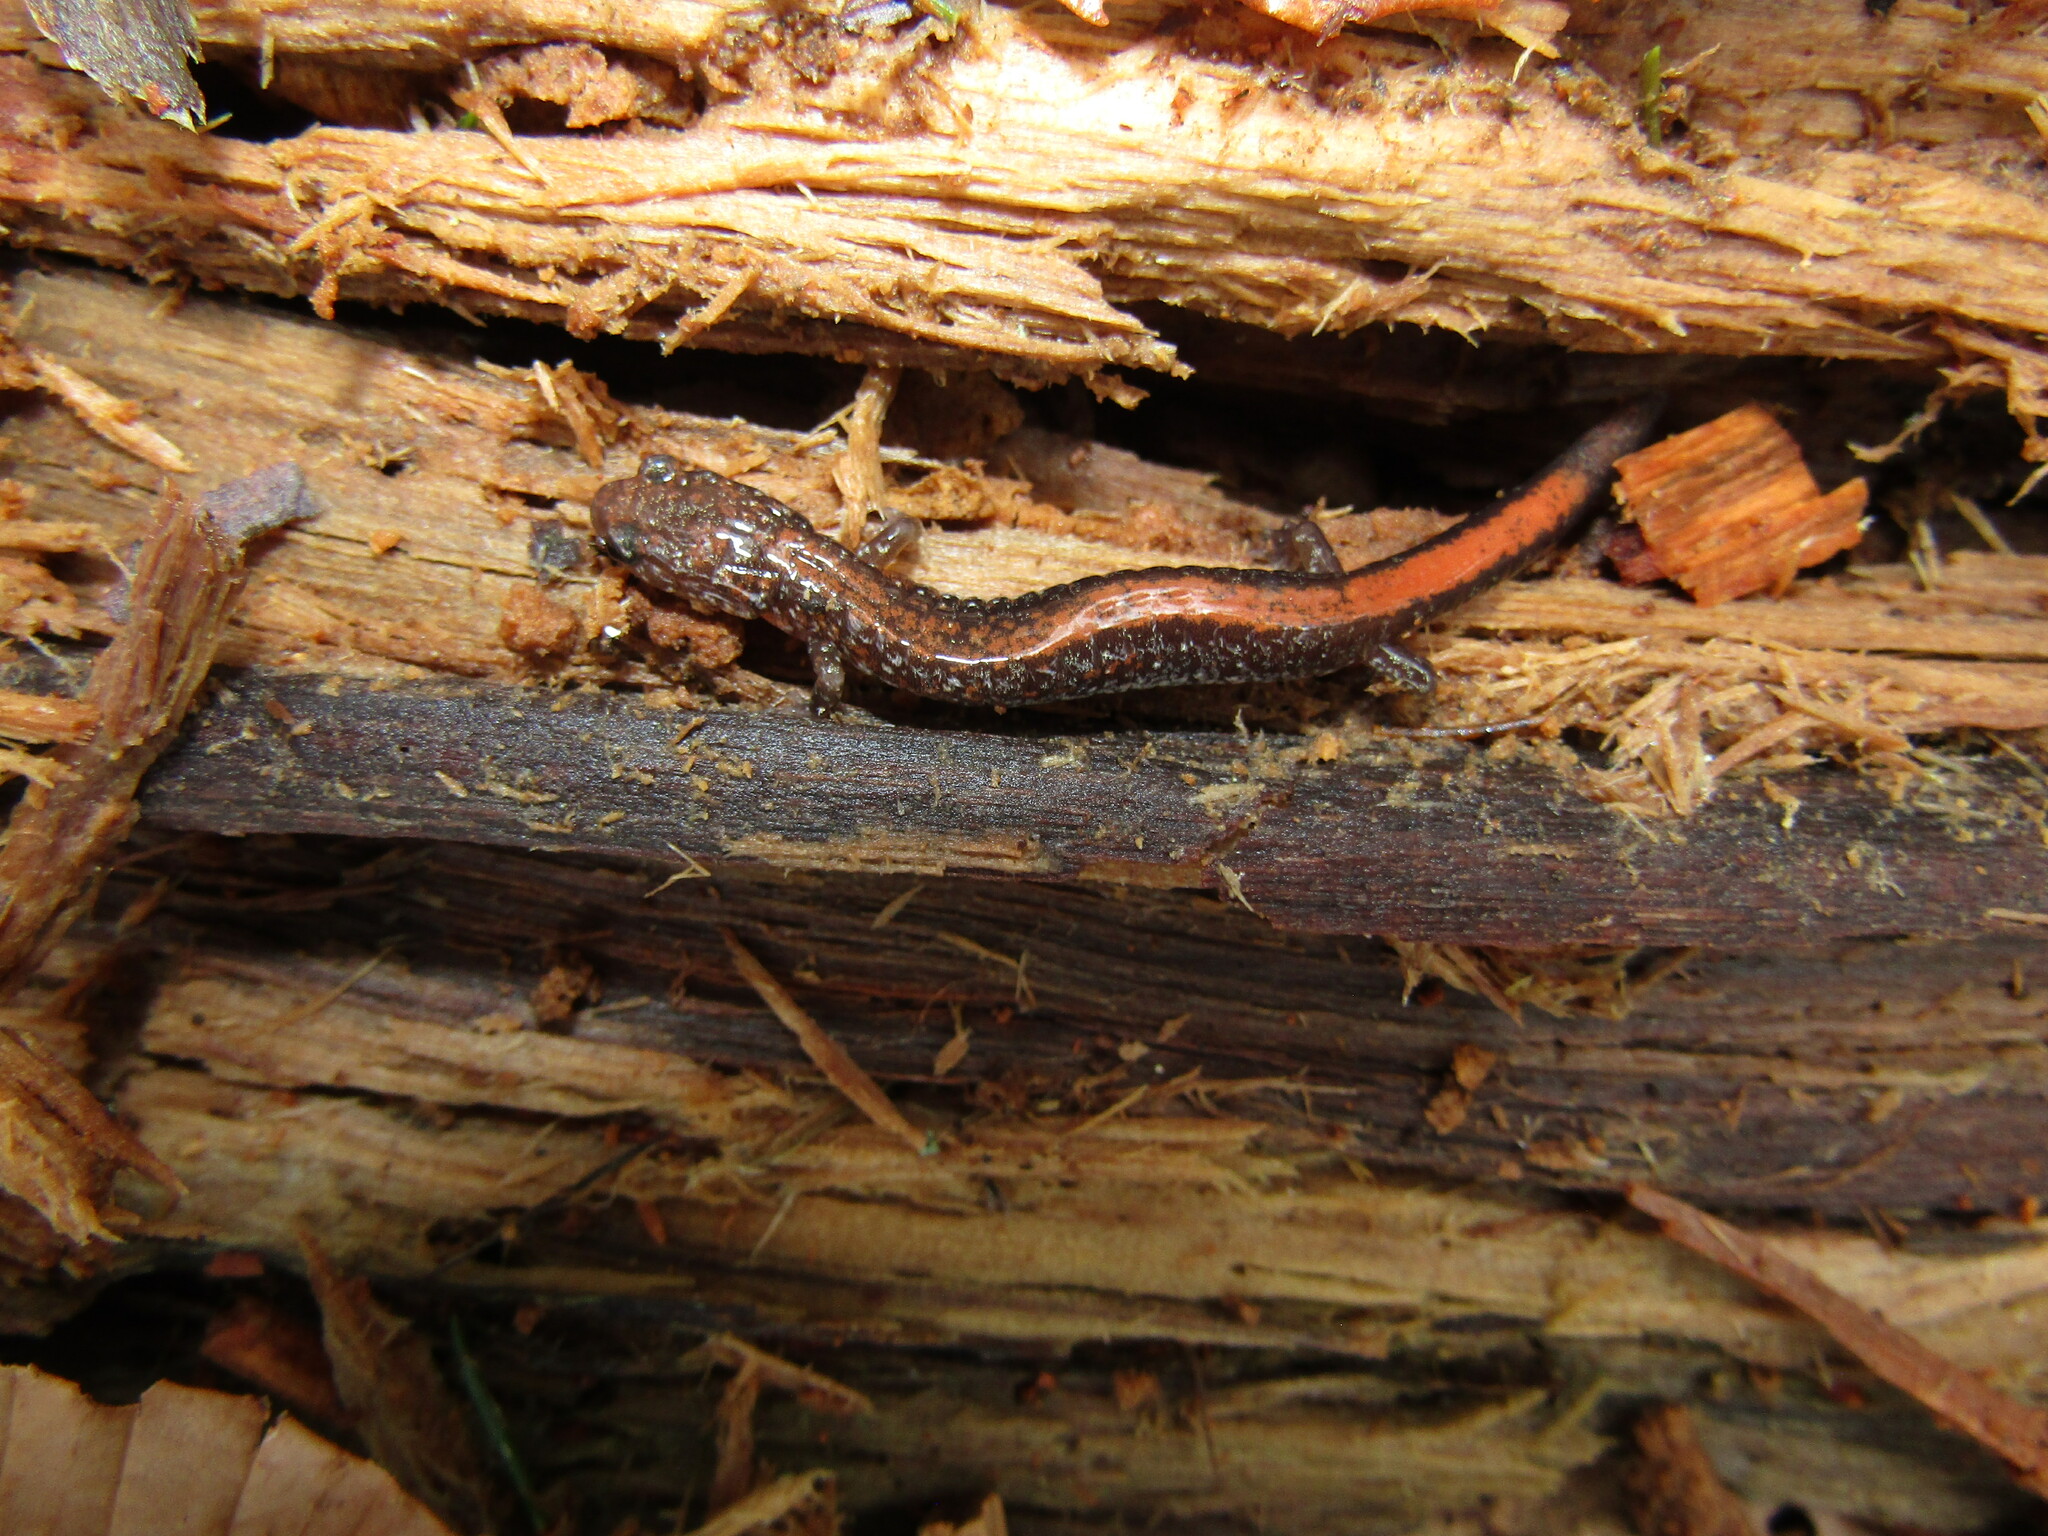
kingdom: Animalia
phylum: Chordata
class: Amphibia
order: Caudata
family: Plethodontidae
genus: Plethodon
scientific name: Plethodon cinereus
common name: Redback salamander
